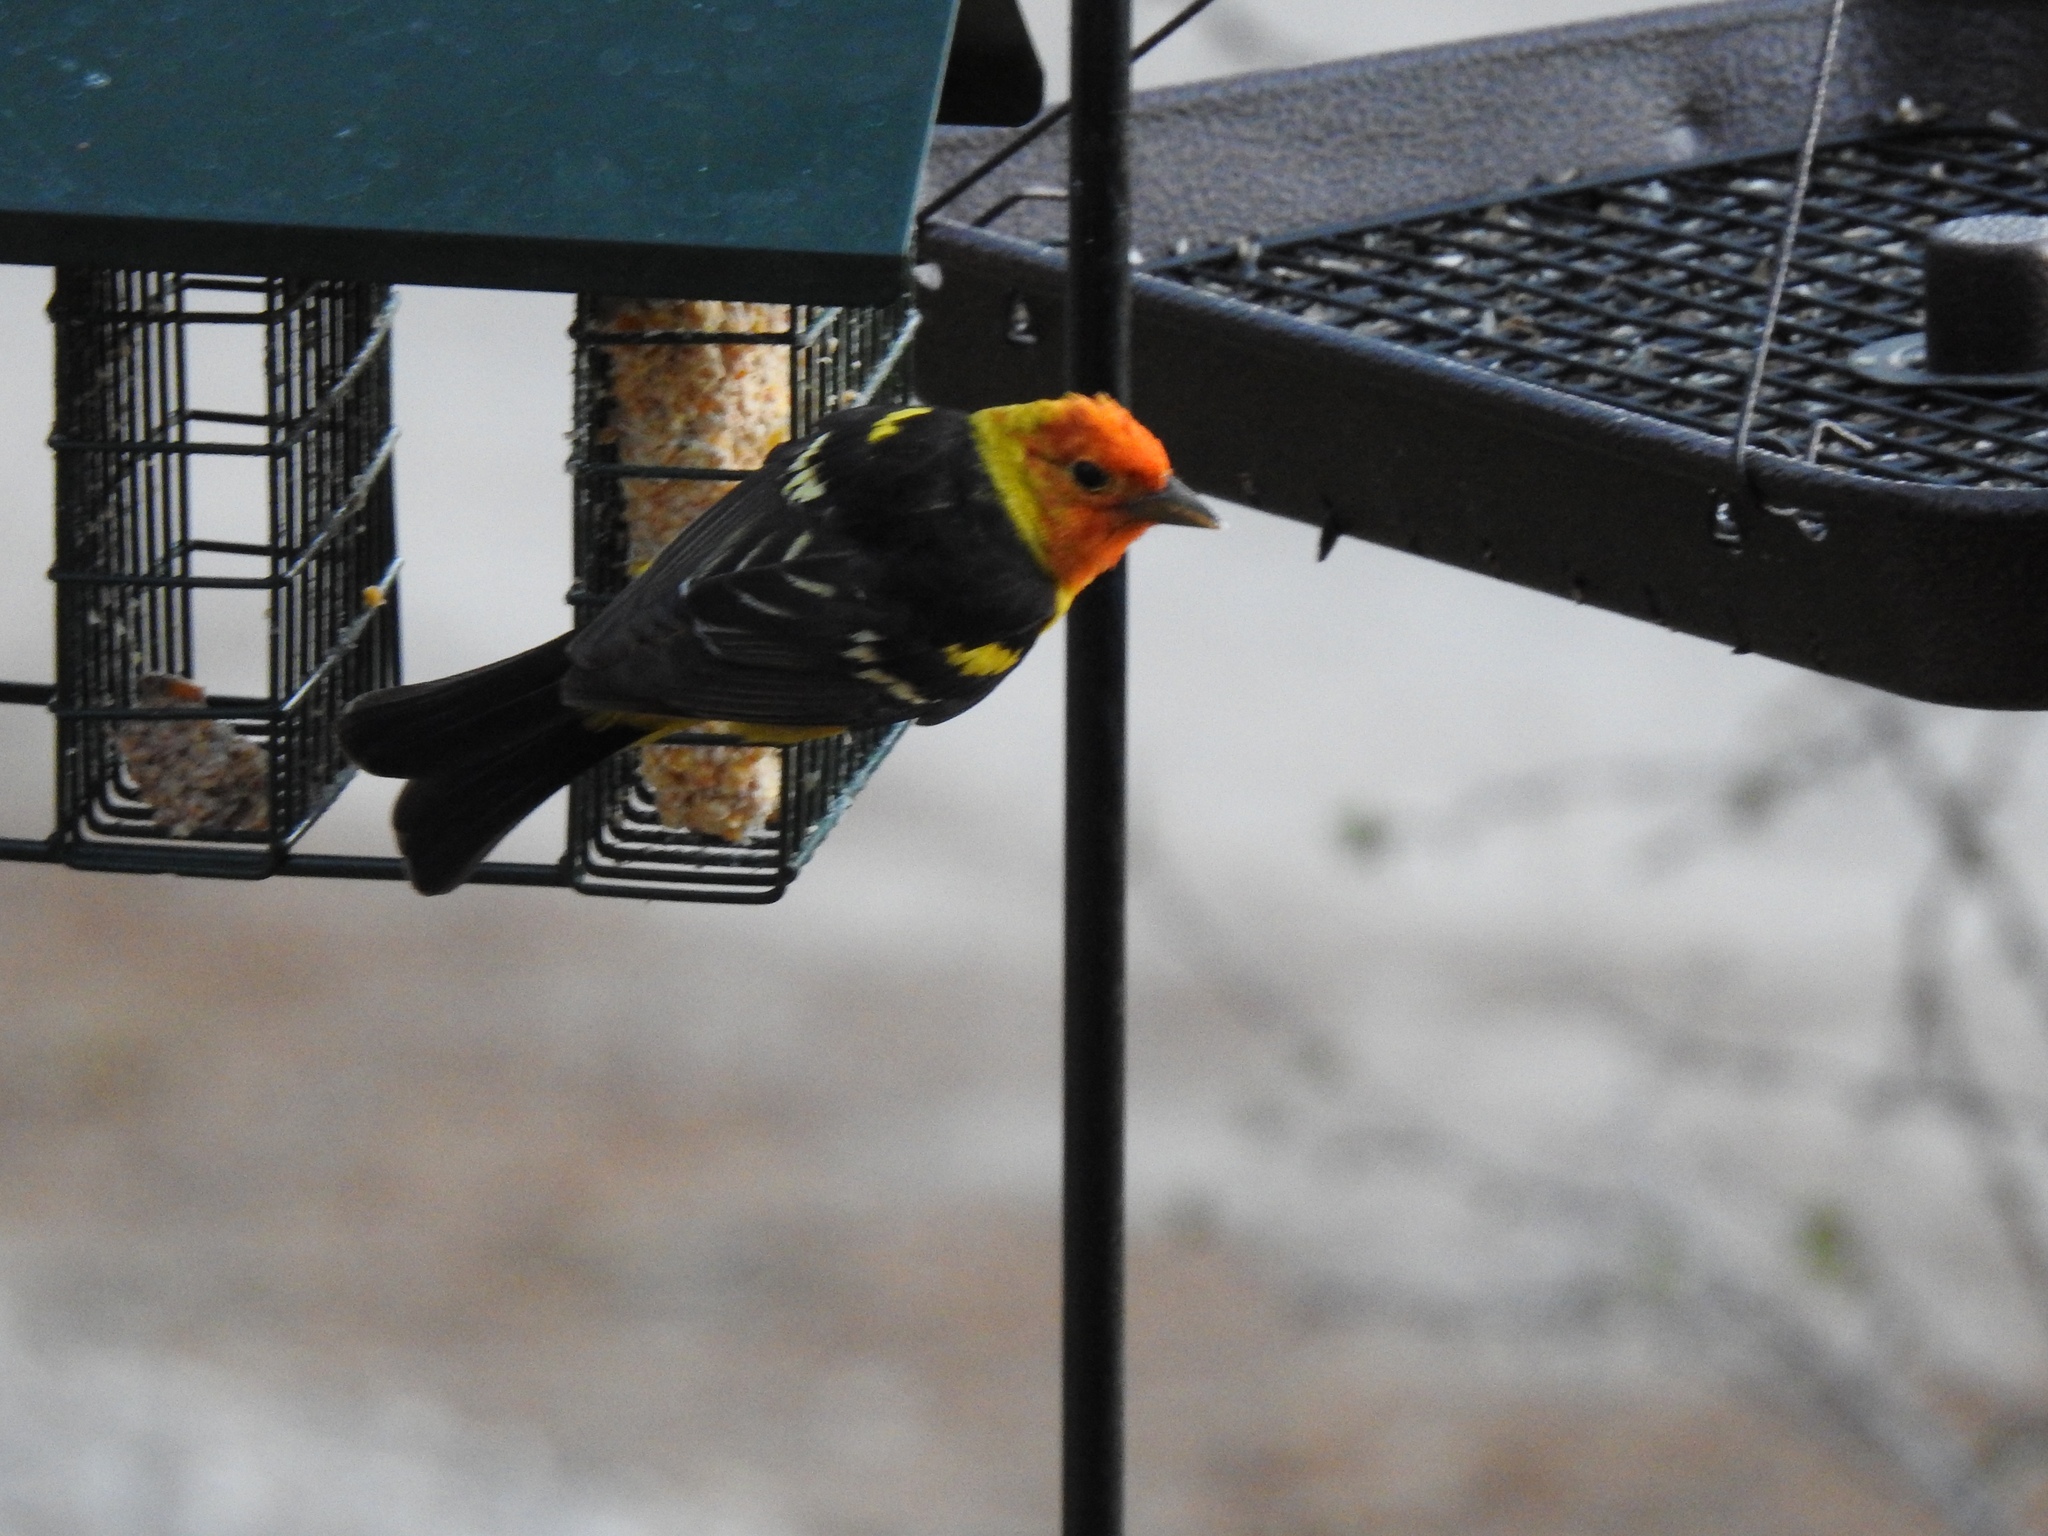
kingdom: Animalia
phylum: Chordata
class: Aves
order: Passeriformes
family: Cardinalidae
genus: Piranga
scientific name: Piranga ludoviciana
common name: Western tanager
